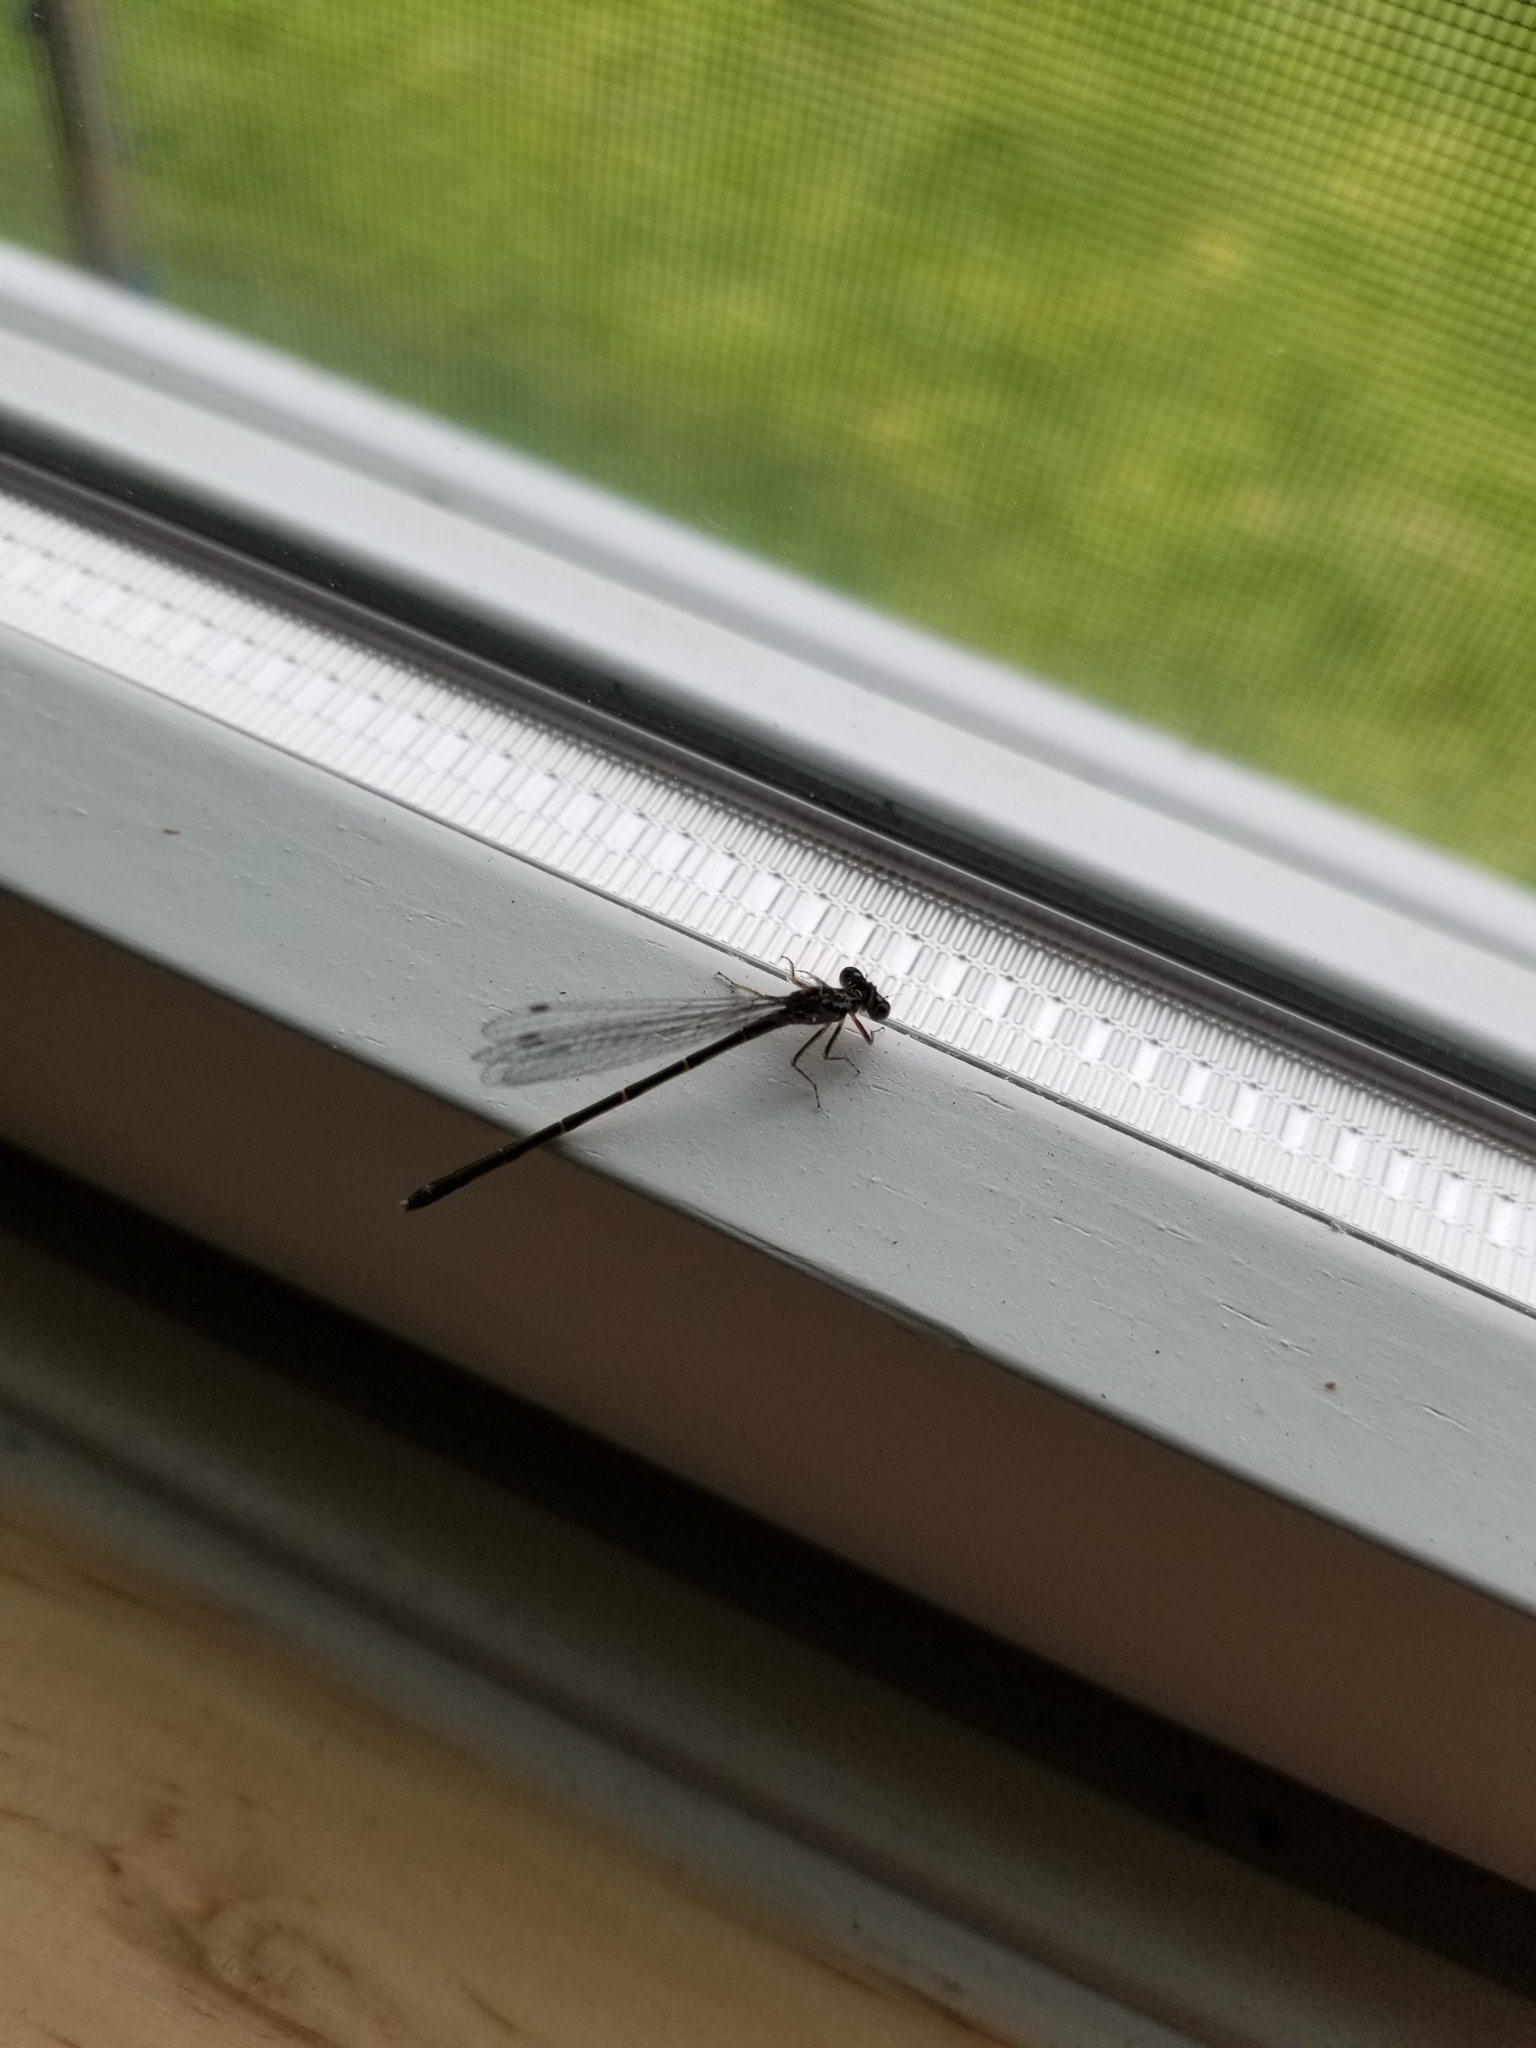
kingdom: Animalia
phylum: Arthropoda
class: Insecta
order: Odonata
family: Coenagrionidae
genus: Ischnura
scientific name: Ischnura posita
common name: Fragile forktail
